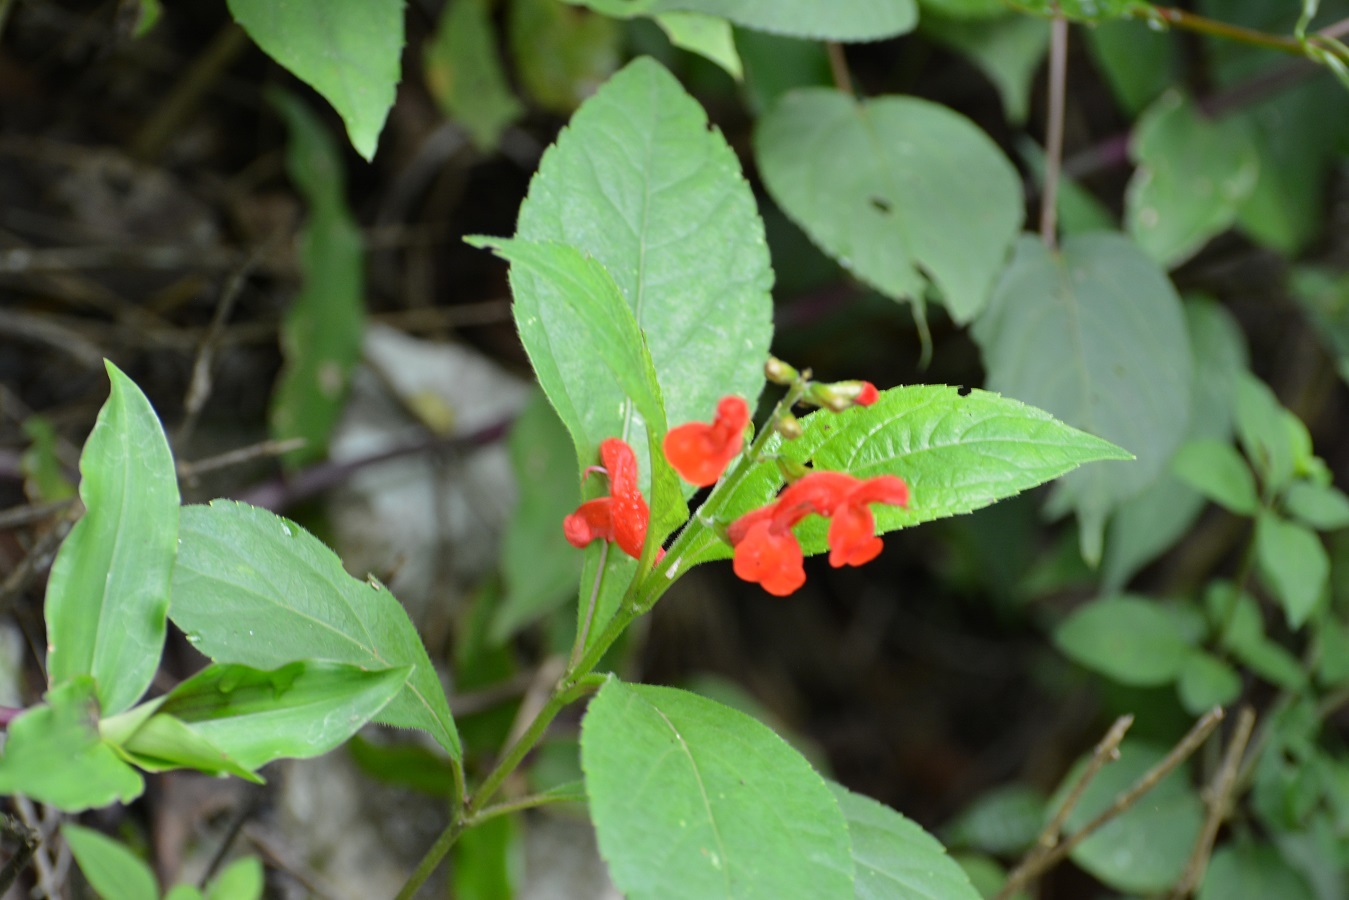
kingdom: Plantae
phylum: Tracheophyta
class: Magnoliopsida
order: Lamiales
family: Lamiaceae
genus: Salvia
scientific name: Salvia miniata
